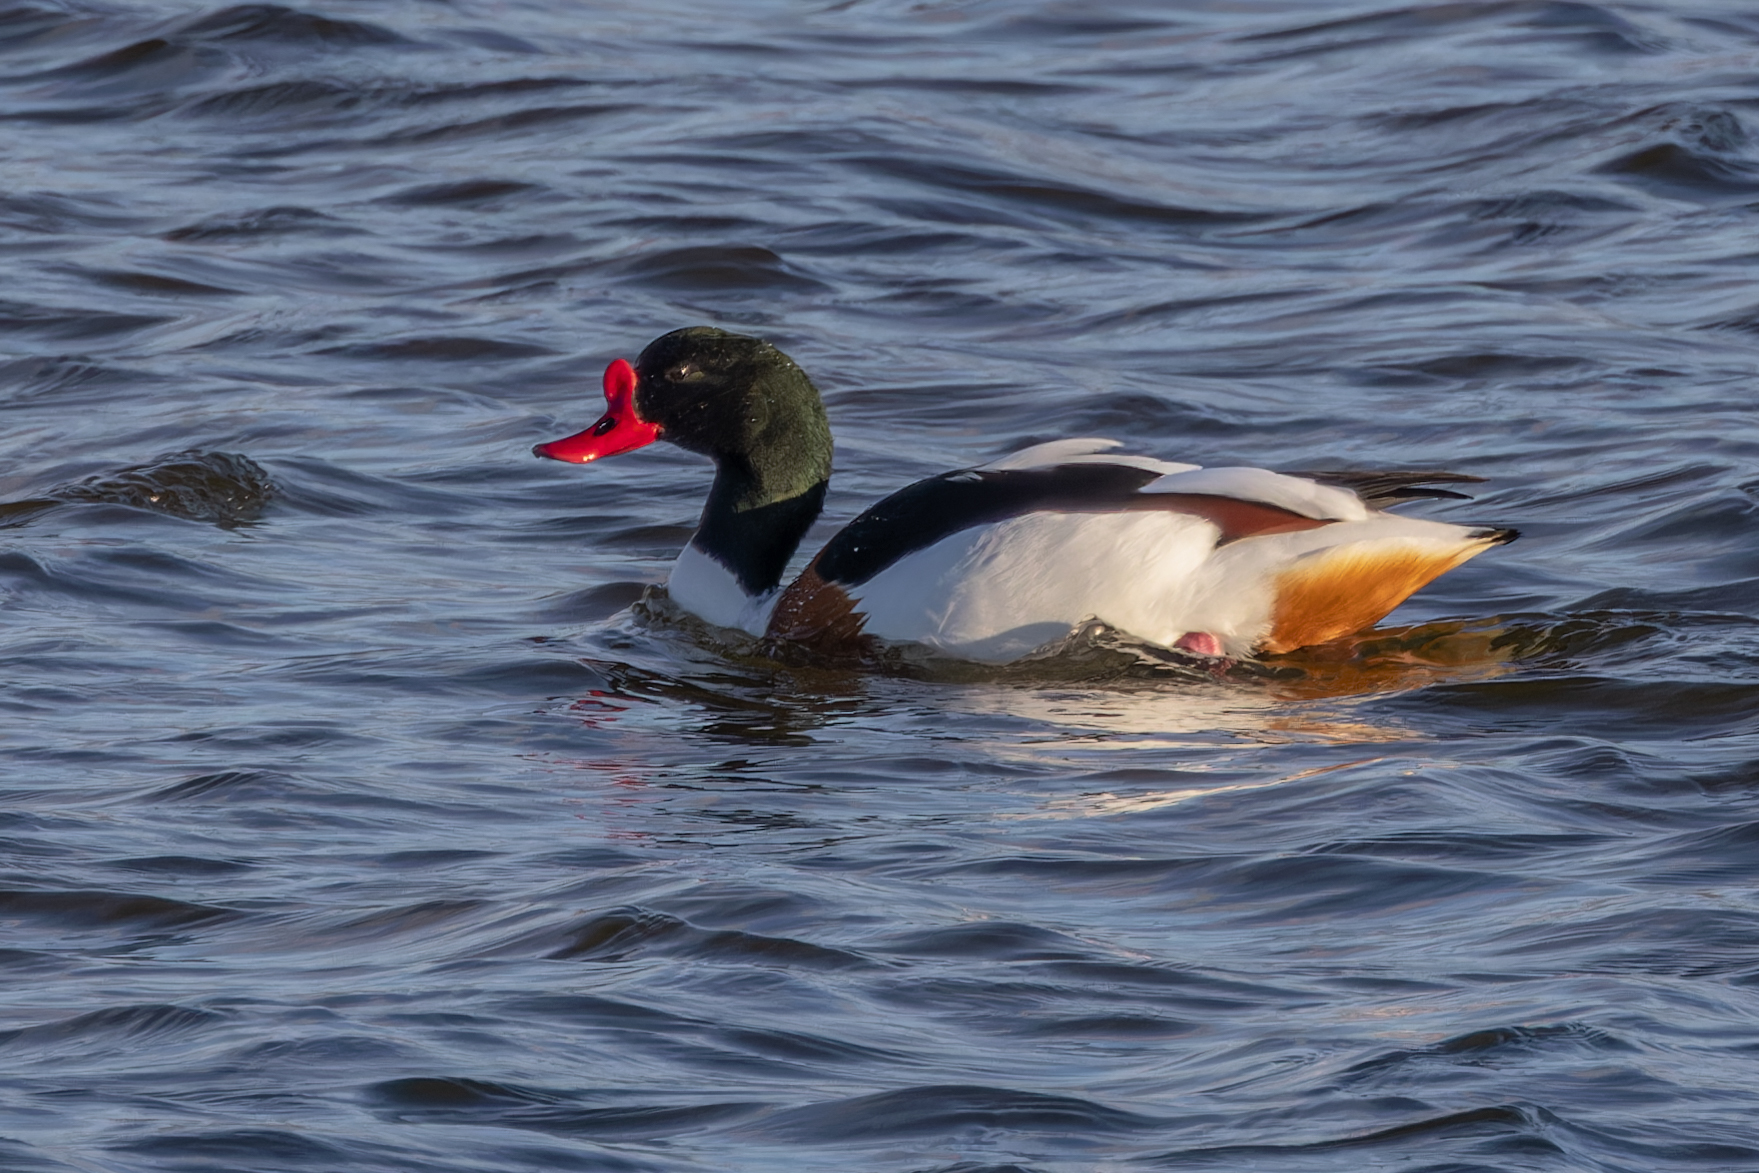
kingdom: Animalia
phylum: Chordata
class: Aves
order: Anseriformes
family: Anatidae
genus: Tadorna
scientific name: Tadorna tadorna
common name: Common shelduck
